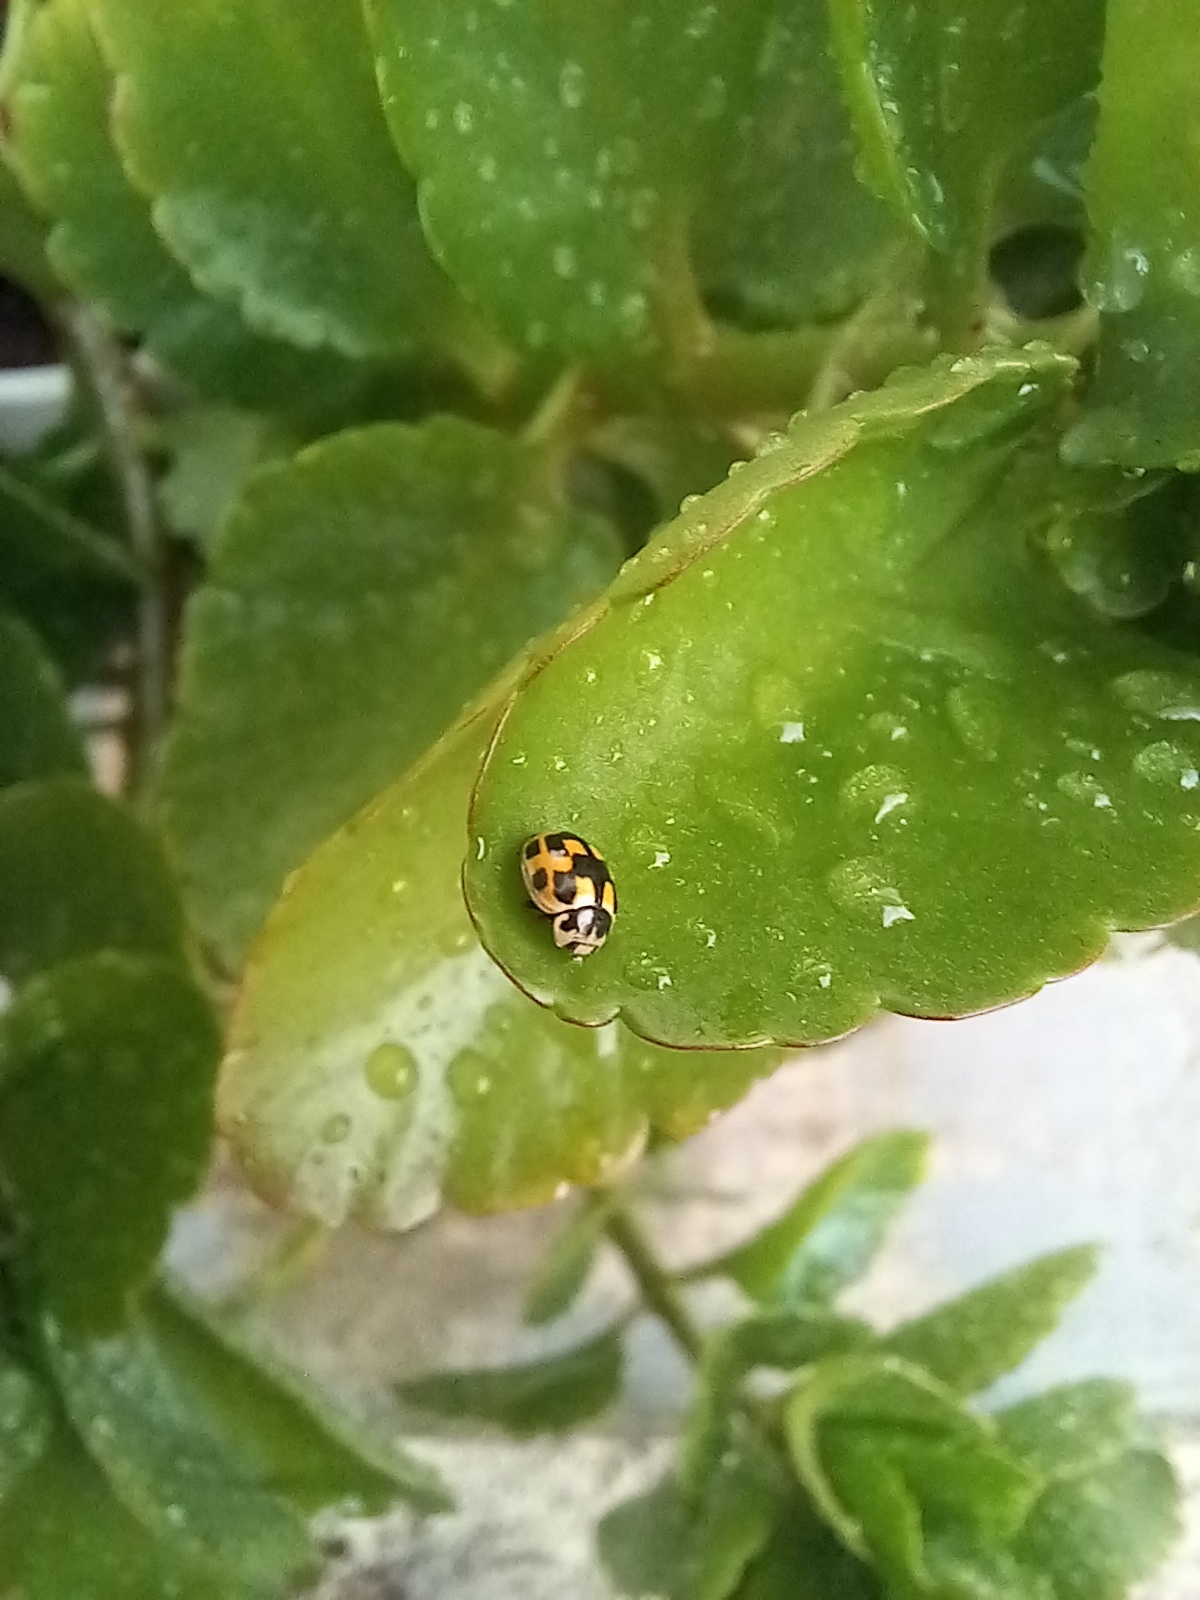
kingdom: Animalia
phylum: Arthropoda
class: Insecta
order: Coleoptera
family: Coccinellidae
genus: Propylaea
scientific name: Propylaea quatuordecimpunctata
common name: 14-spotted ladybird beetle
